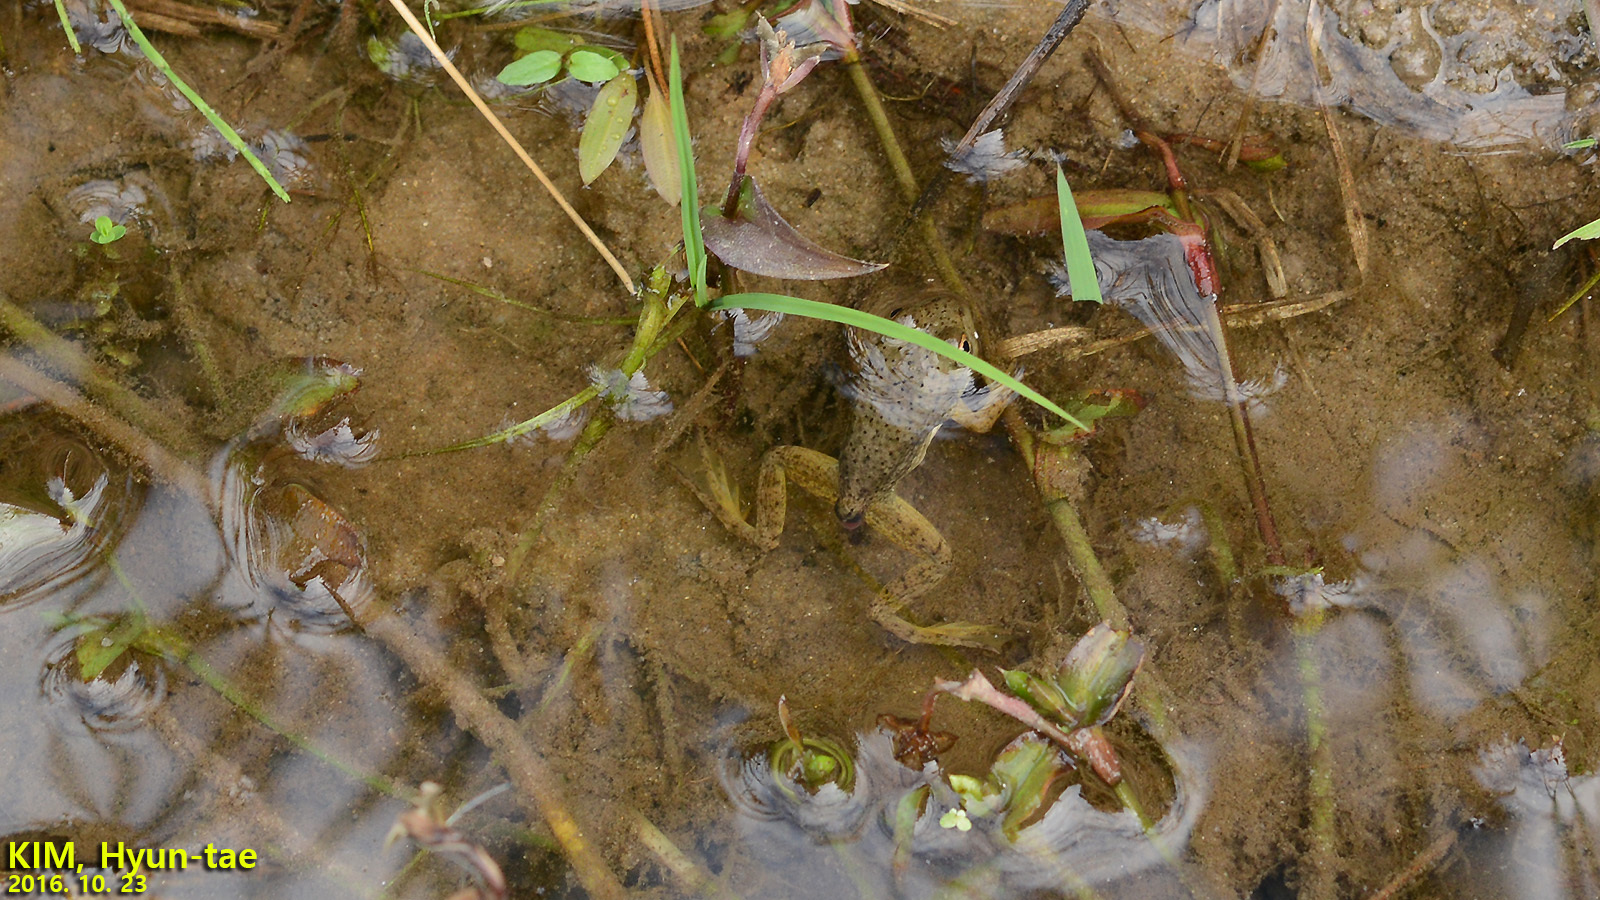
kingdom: Animalia
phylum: Chordata
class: Amphibia
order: Anura
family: Ranidae
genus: Lithobates
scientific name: Lithobates catesbeianus
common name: American bullfrog
